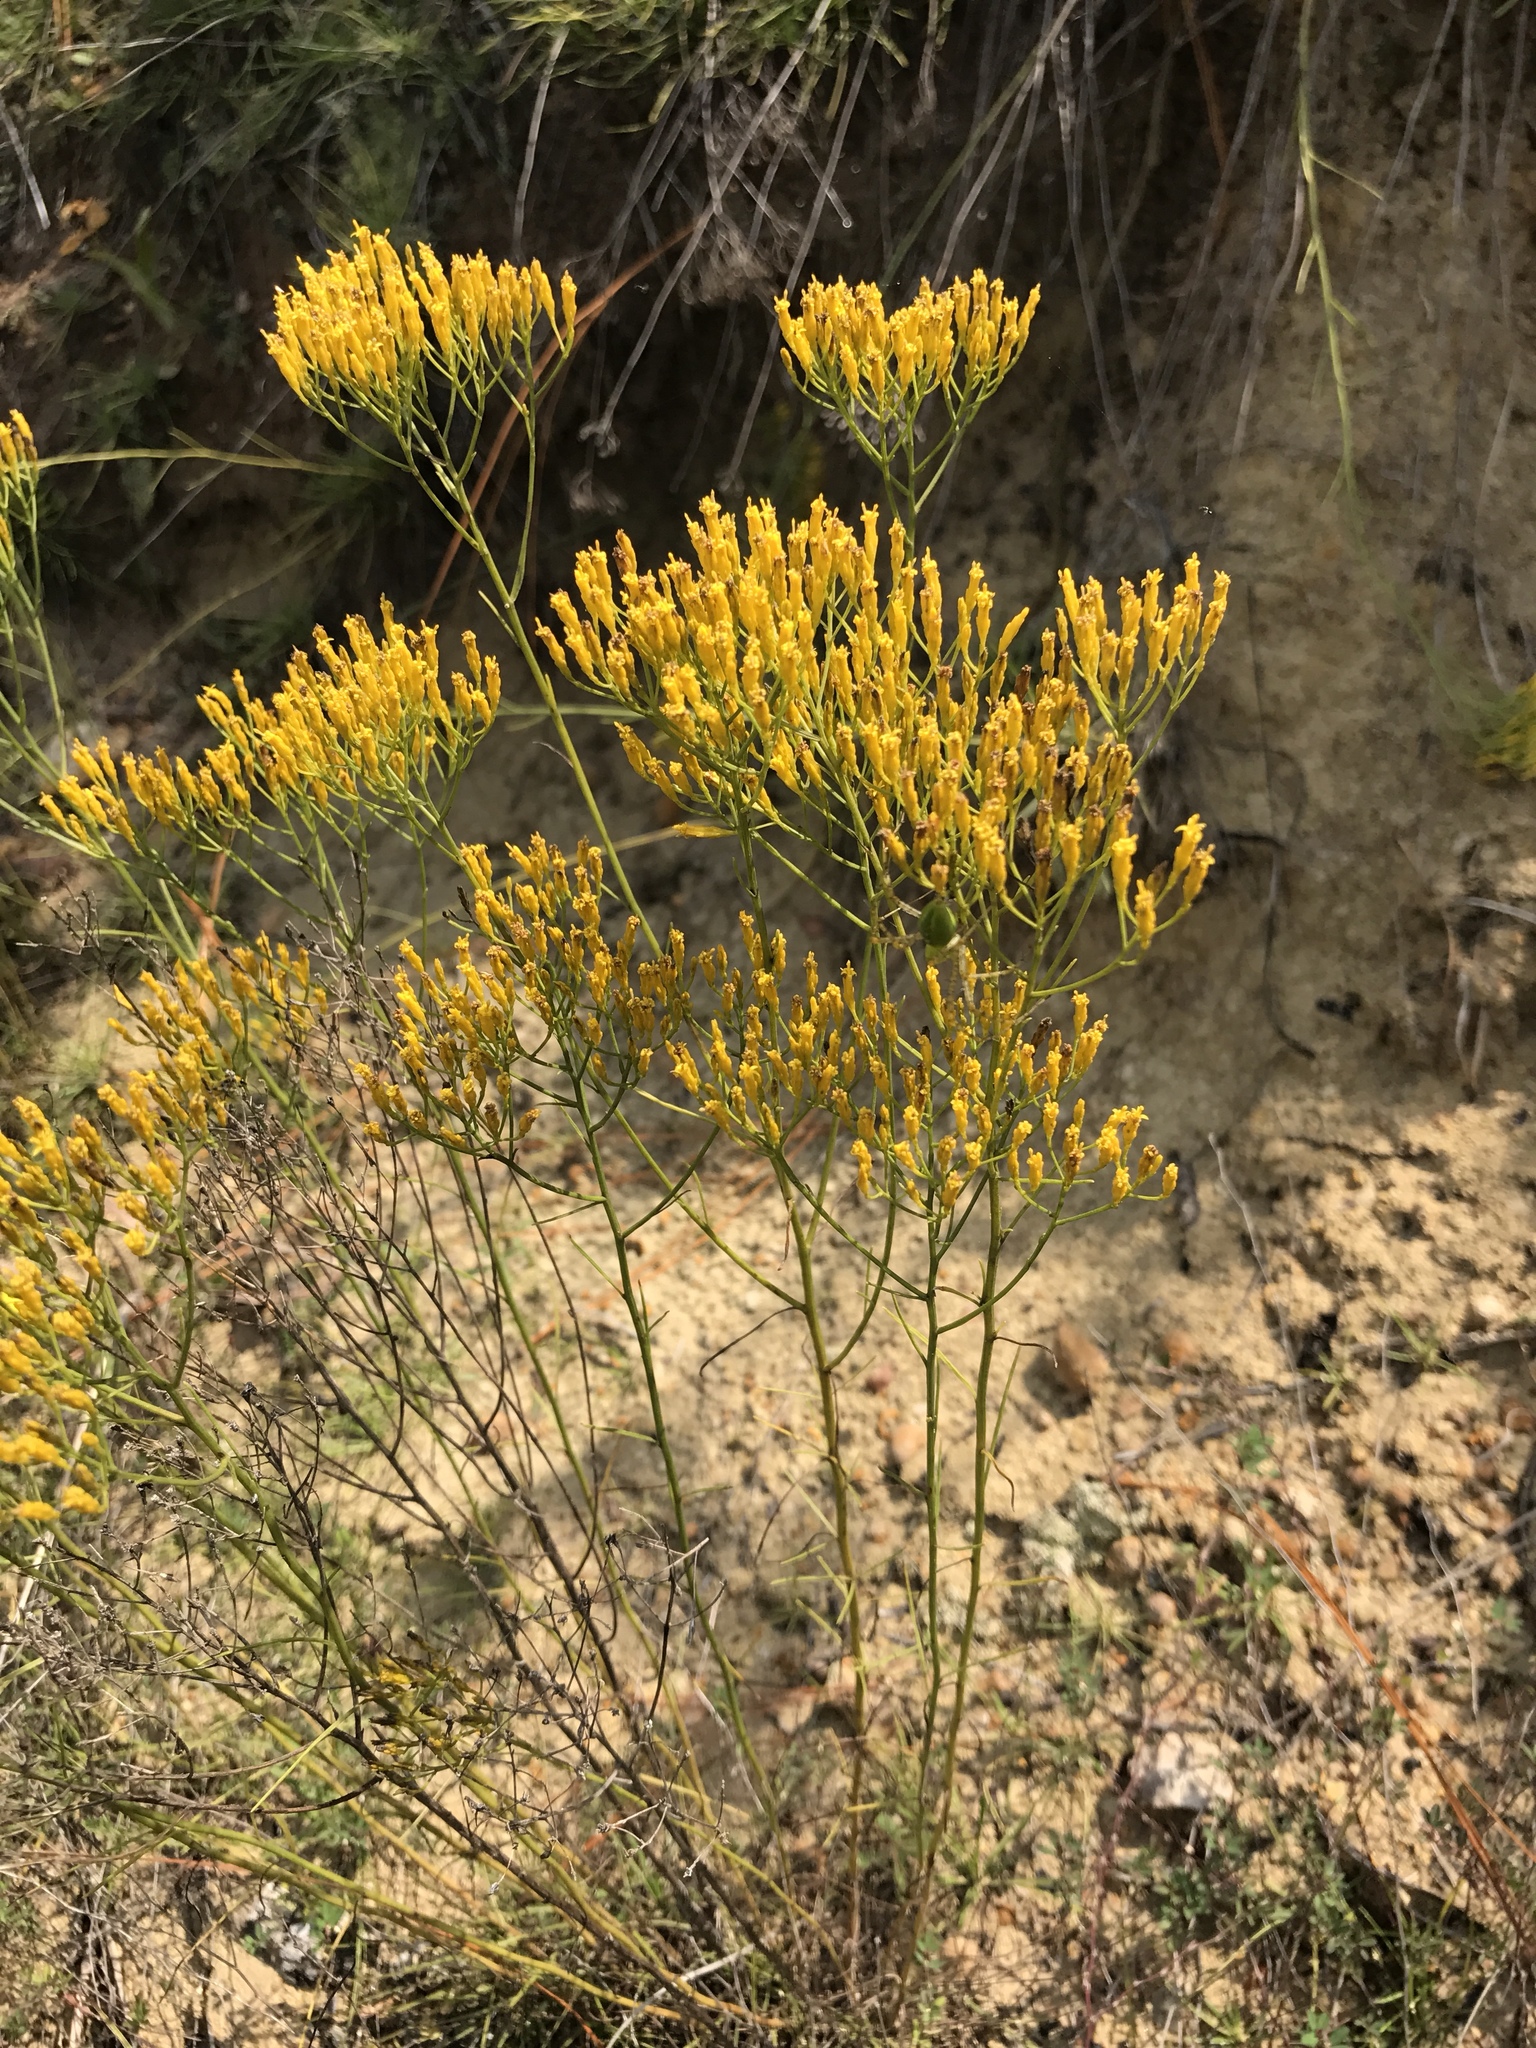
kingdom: Plantae
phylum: Tracheophyta
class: Magnoliopsida
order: Asterales
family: Asteraceae
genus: Bigelowia
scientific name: Bigelowia nuttallii
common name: Nuttall's rayless-goldenrod
